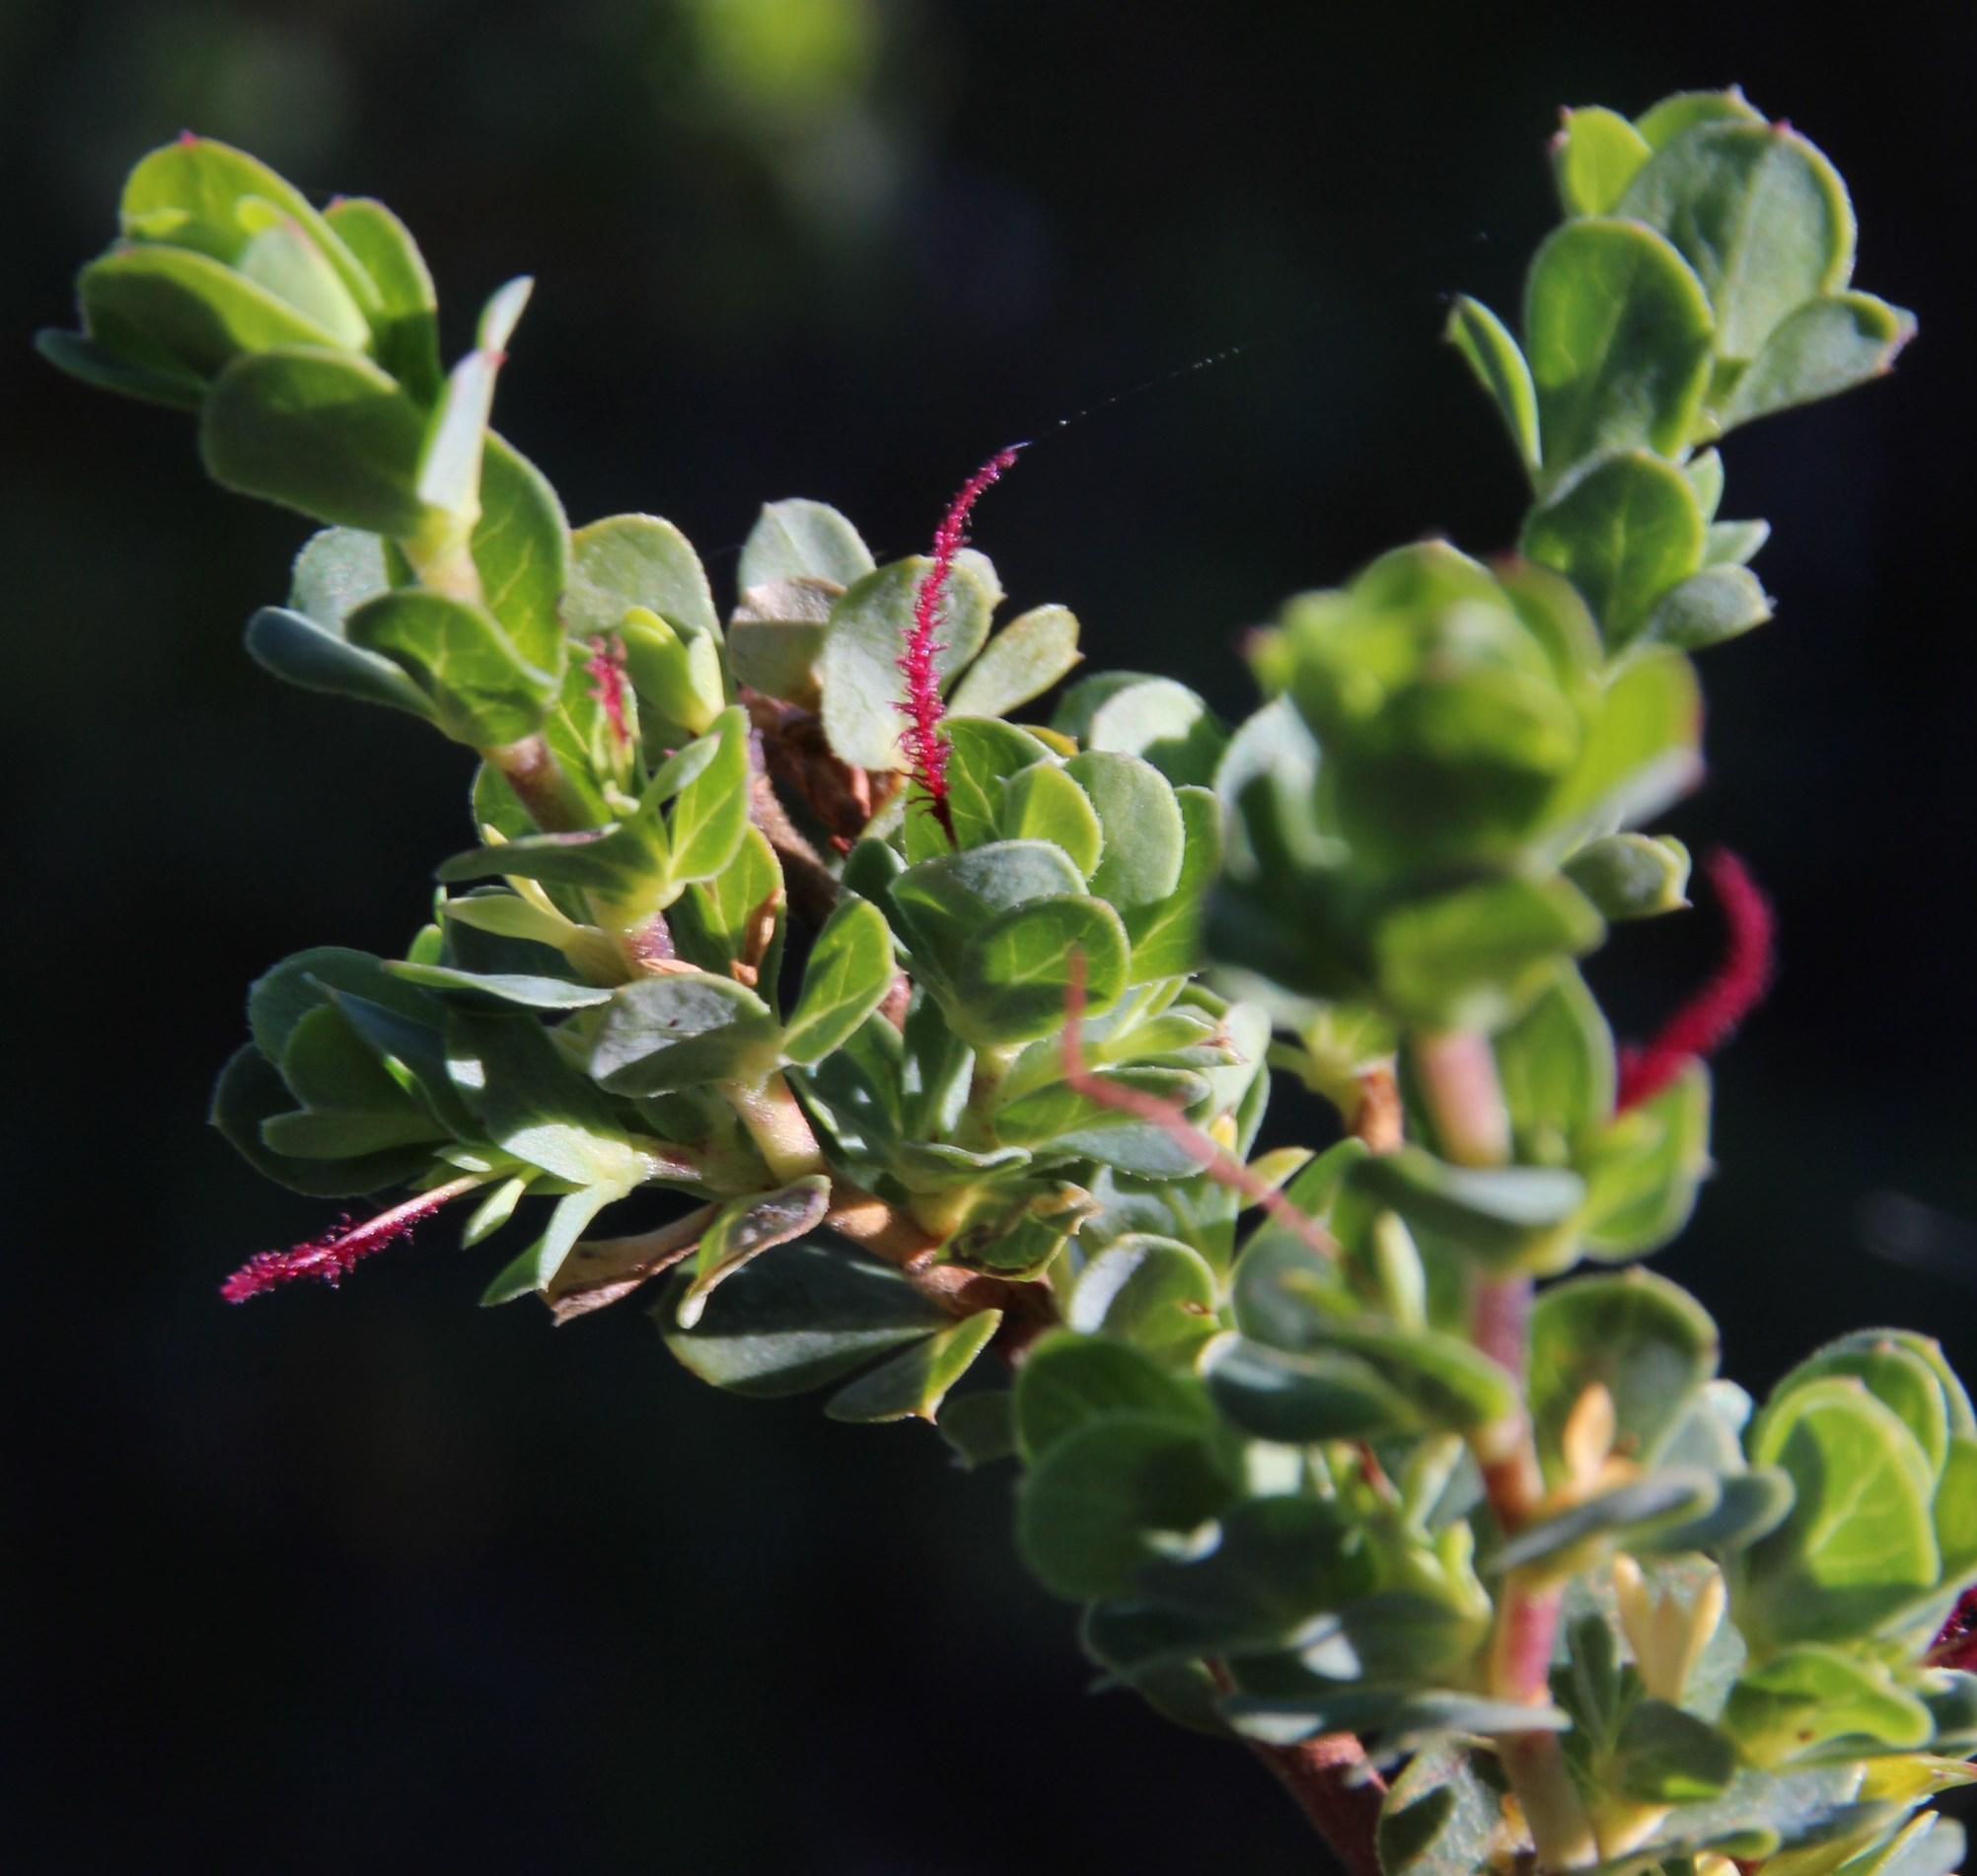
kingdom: Plantae
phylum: Tracheophyta
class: Magnoliopsida
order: Rosales
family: Rosaceae
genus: Cliffortia
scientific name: Cliffortia obcordata
